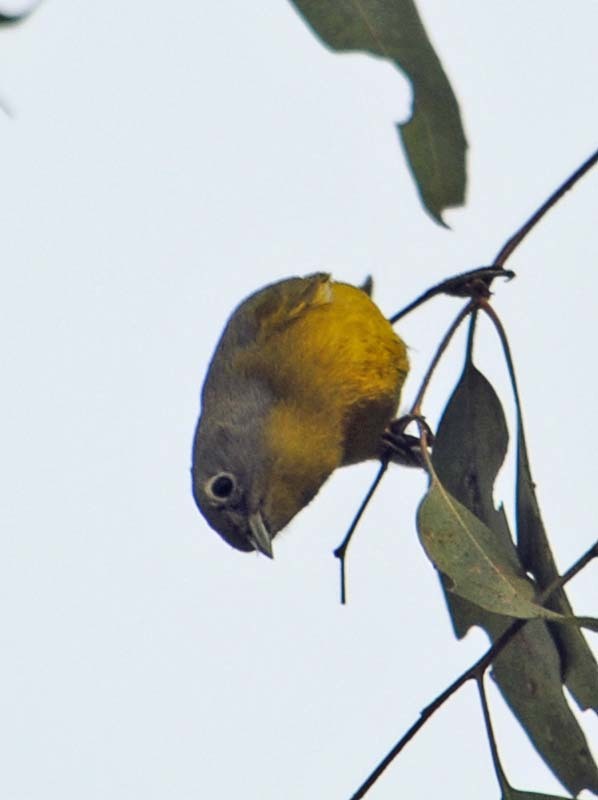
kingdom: Animalia
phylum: Chordata
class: Aves
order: Passeriformes
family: Parulidae
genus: Leiothlypis
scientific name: Leiothlypis ruficapilla
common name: Nashville warbler
